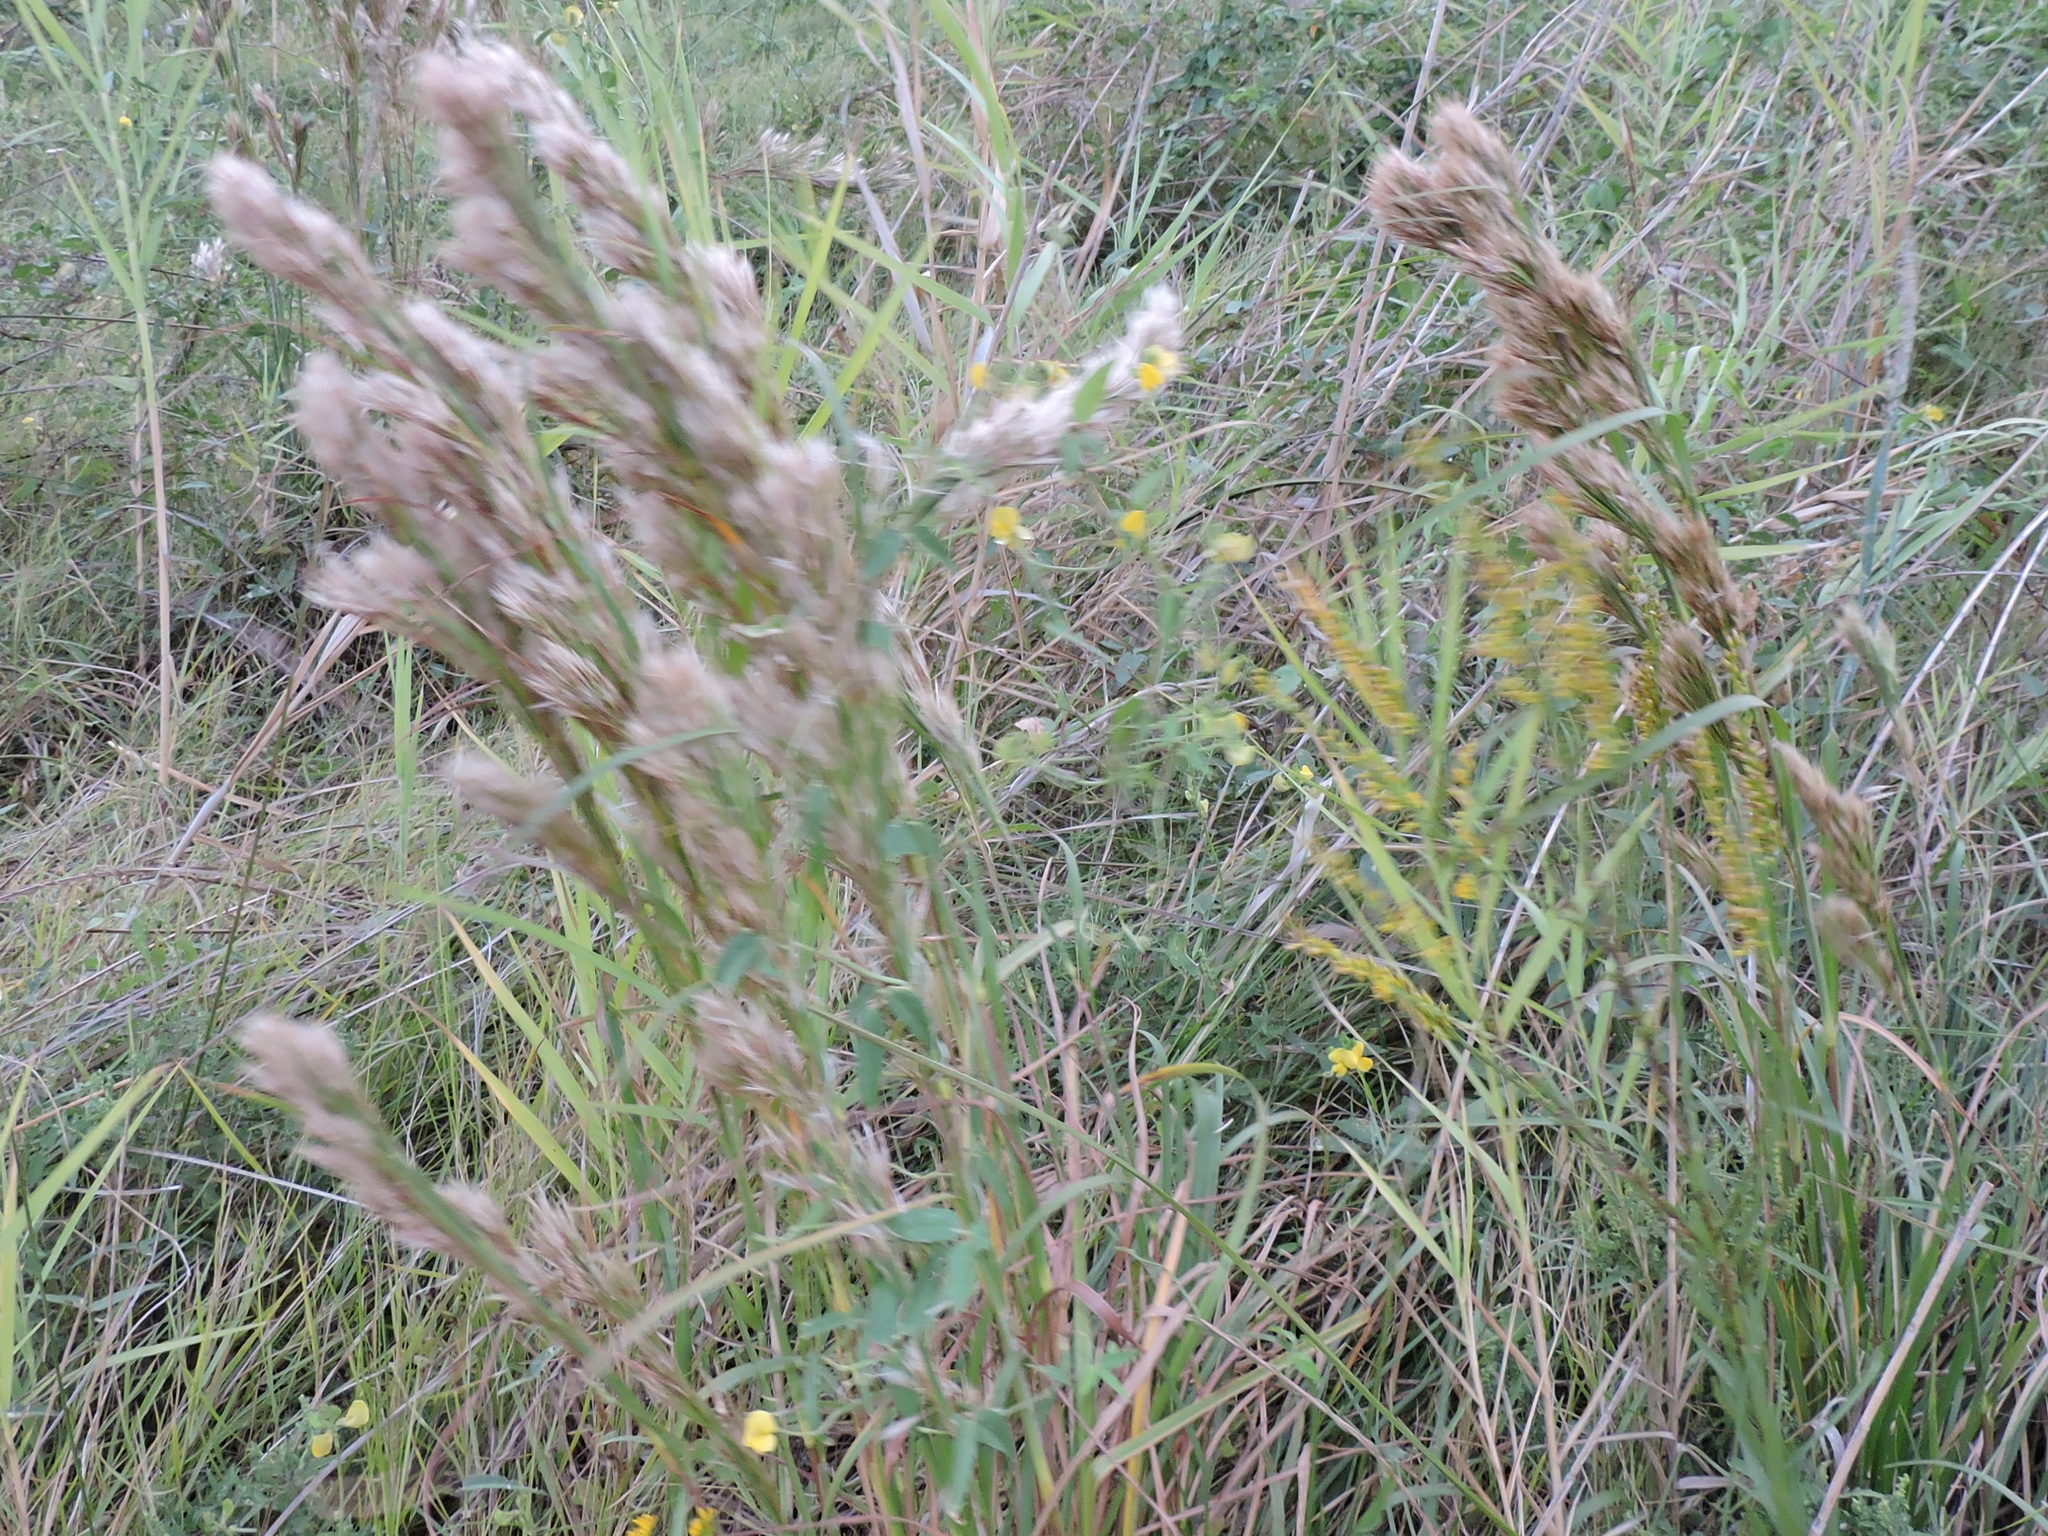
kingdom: Plantae
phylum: Tracheophyta
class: Liliopsida
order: Poales
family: Poaceae
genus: Andropogon
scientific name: Andropogon tenuispatheus
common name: Bushy bluestem
